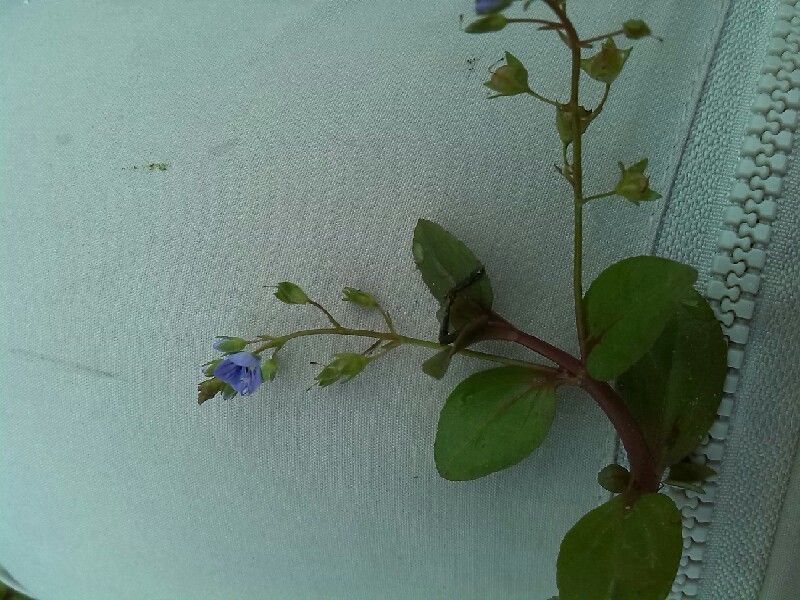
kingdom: Plantae
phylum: Tracheophyta
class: Magnoliopsida
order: Lamiales
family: Plantaginaceae
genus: Veronica
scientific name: Veronica beccabunga
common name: Brooklime
